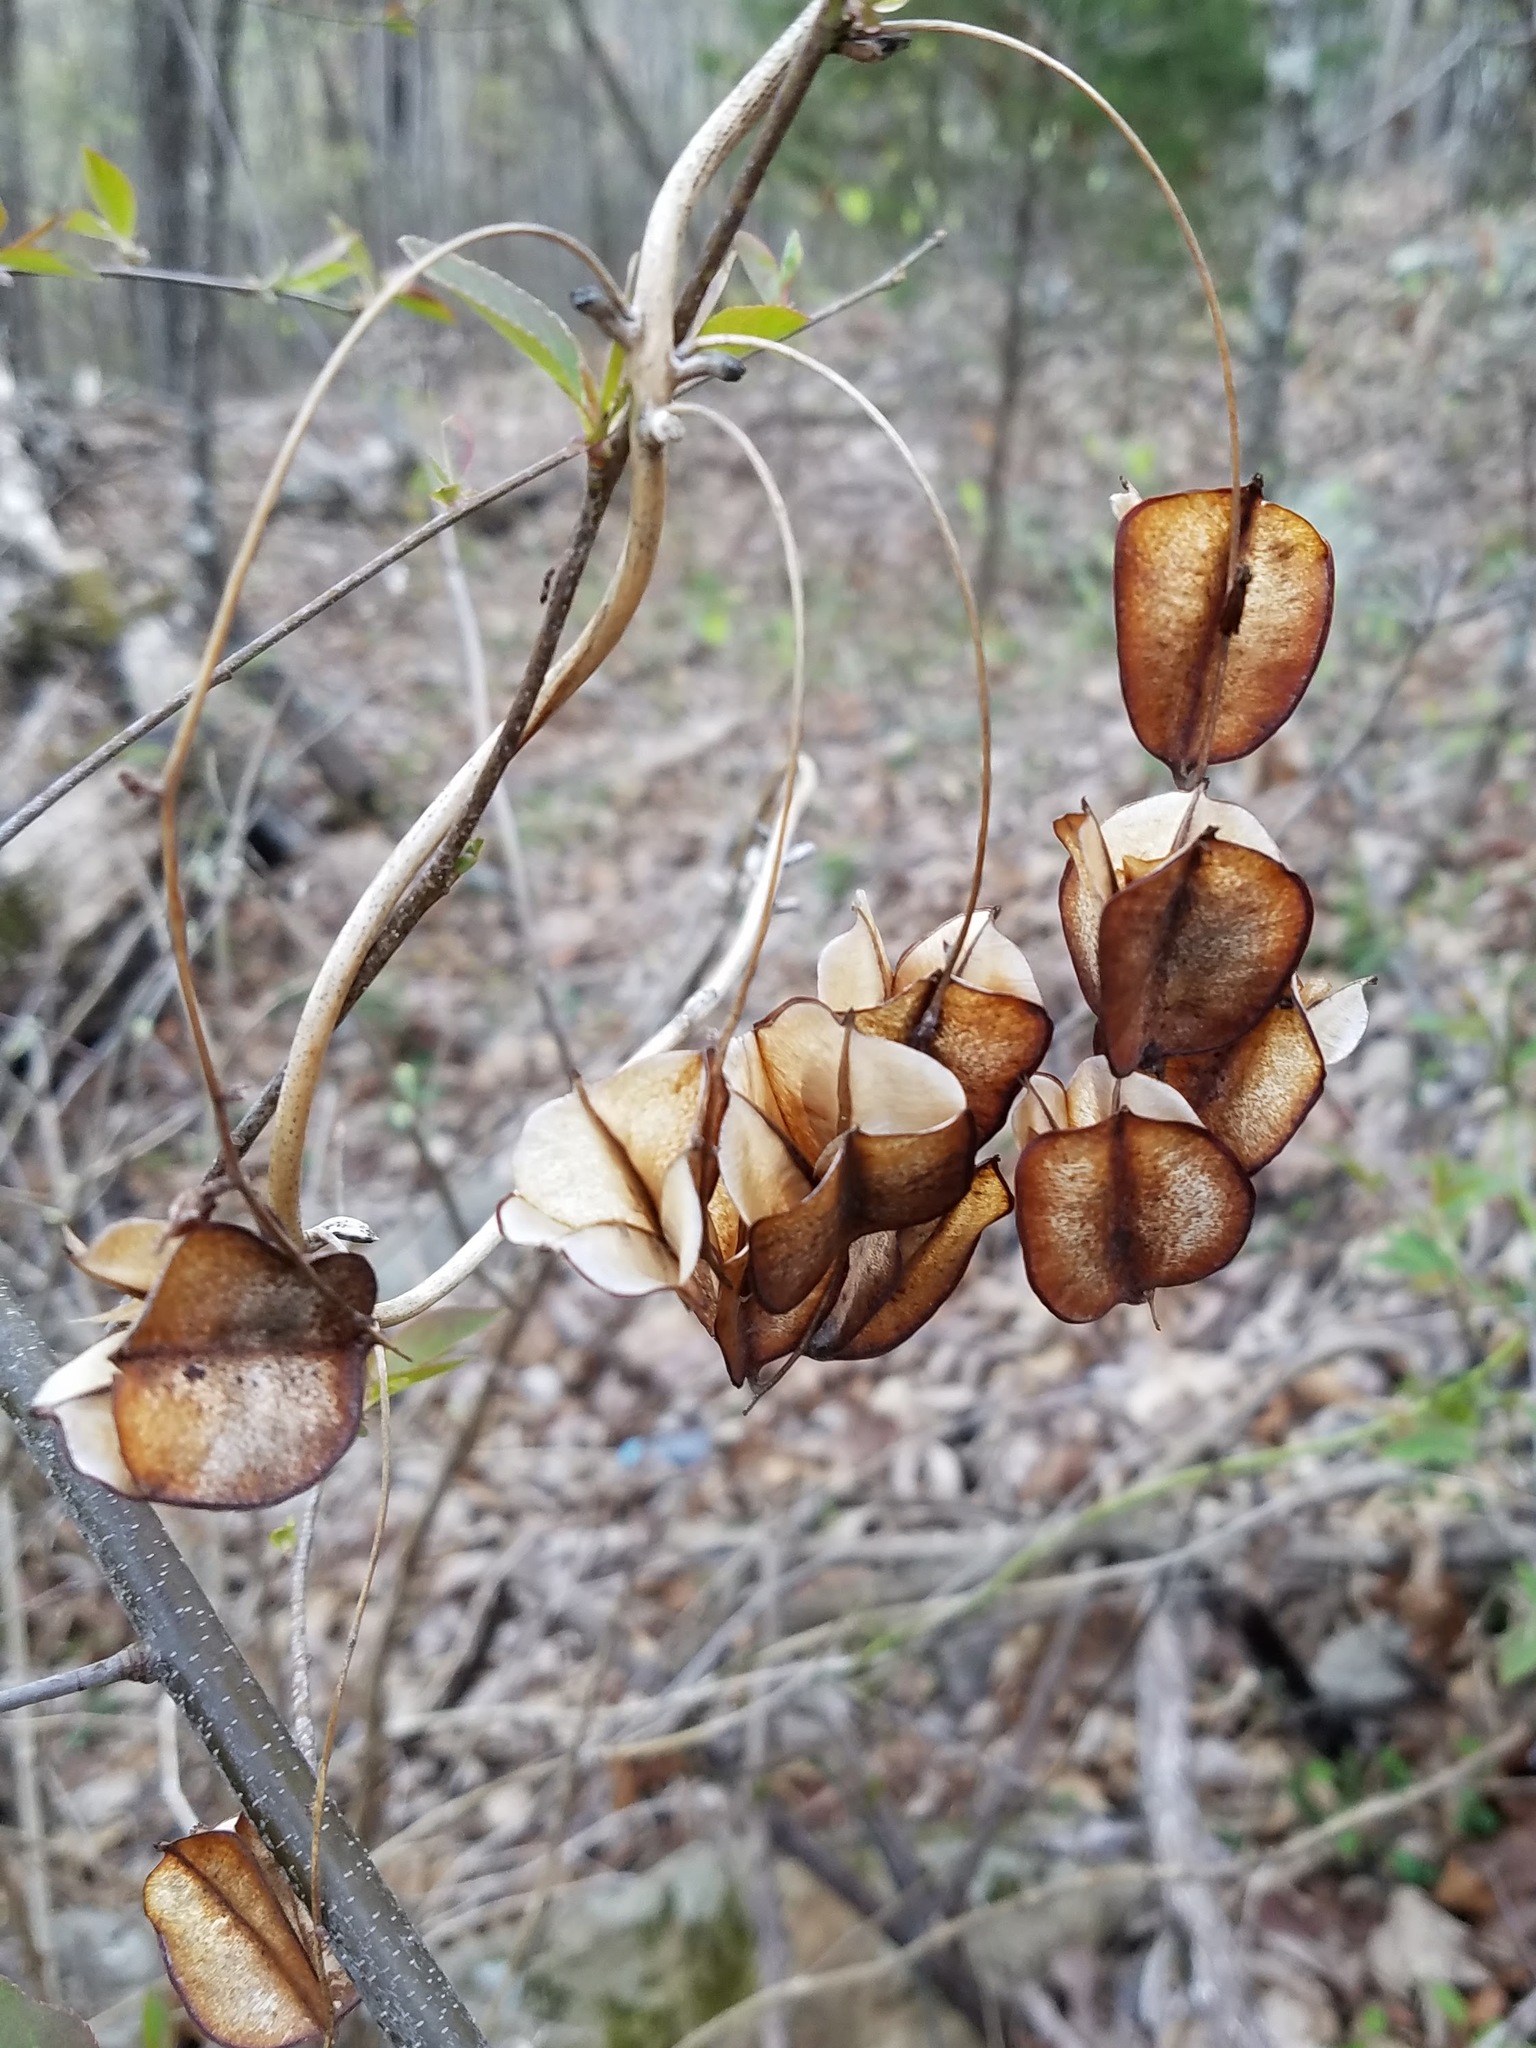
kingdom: Plantae
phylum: Tracheophyta
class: Liliopsida
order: Dioscoreales
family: Dioscoreaceae
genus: Dioscorea
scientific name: Dioscorea villosa
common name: Wild yam
